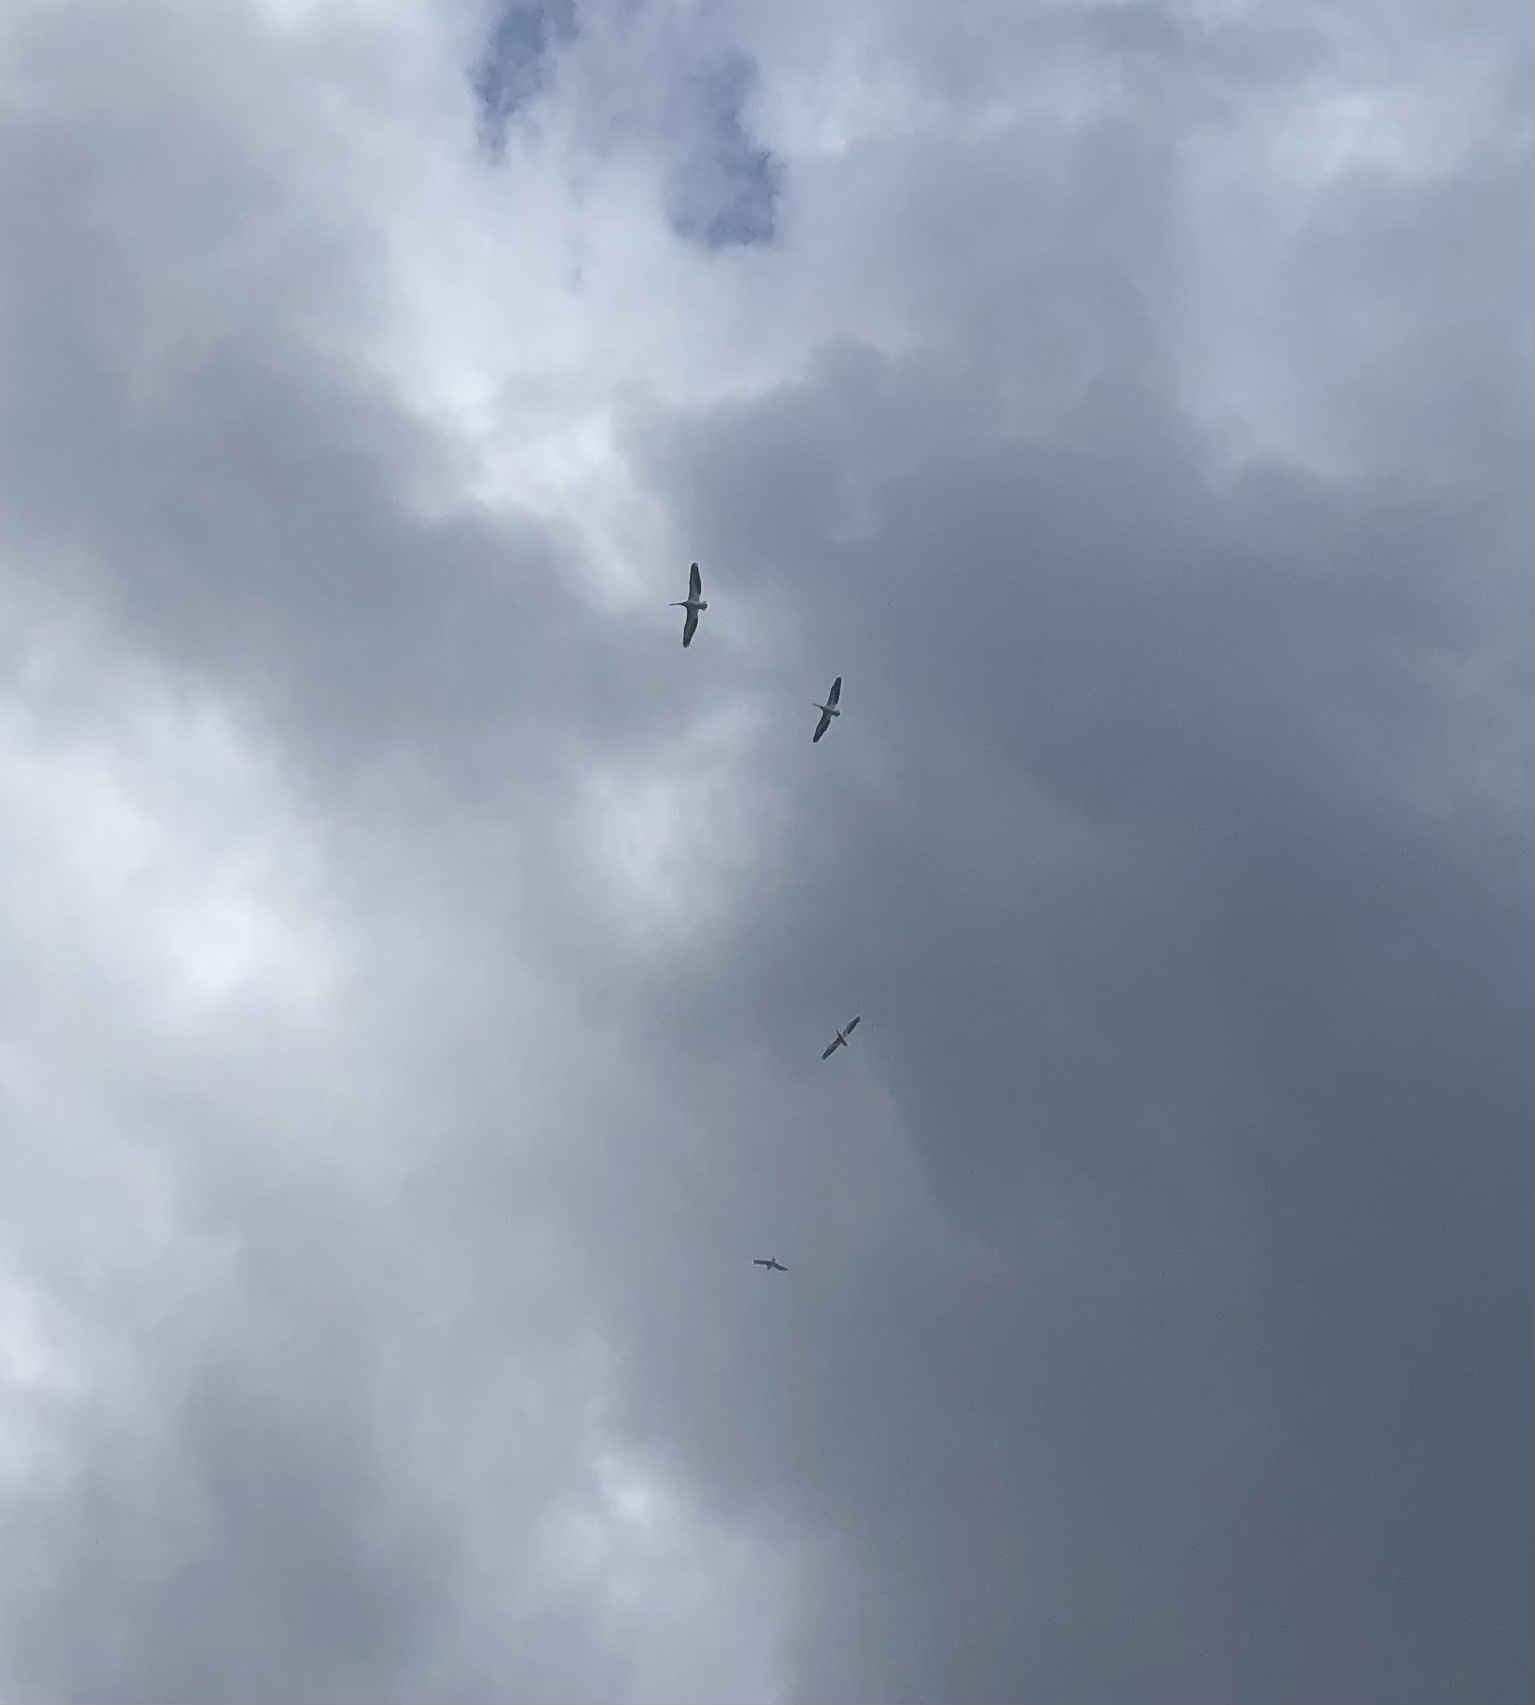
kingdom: Animalia
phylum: Chordata
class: Aves
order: Pelecaniformes
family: Pelecanidae
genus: Pelecanus
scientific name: Pelecanus erythrorhynchos
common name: American white pelican
